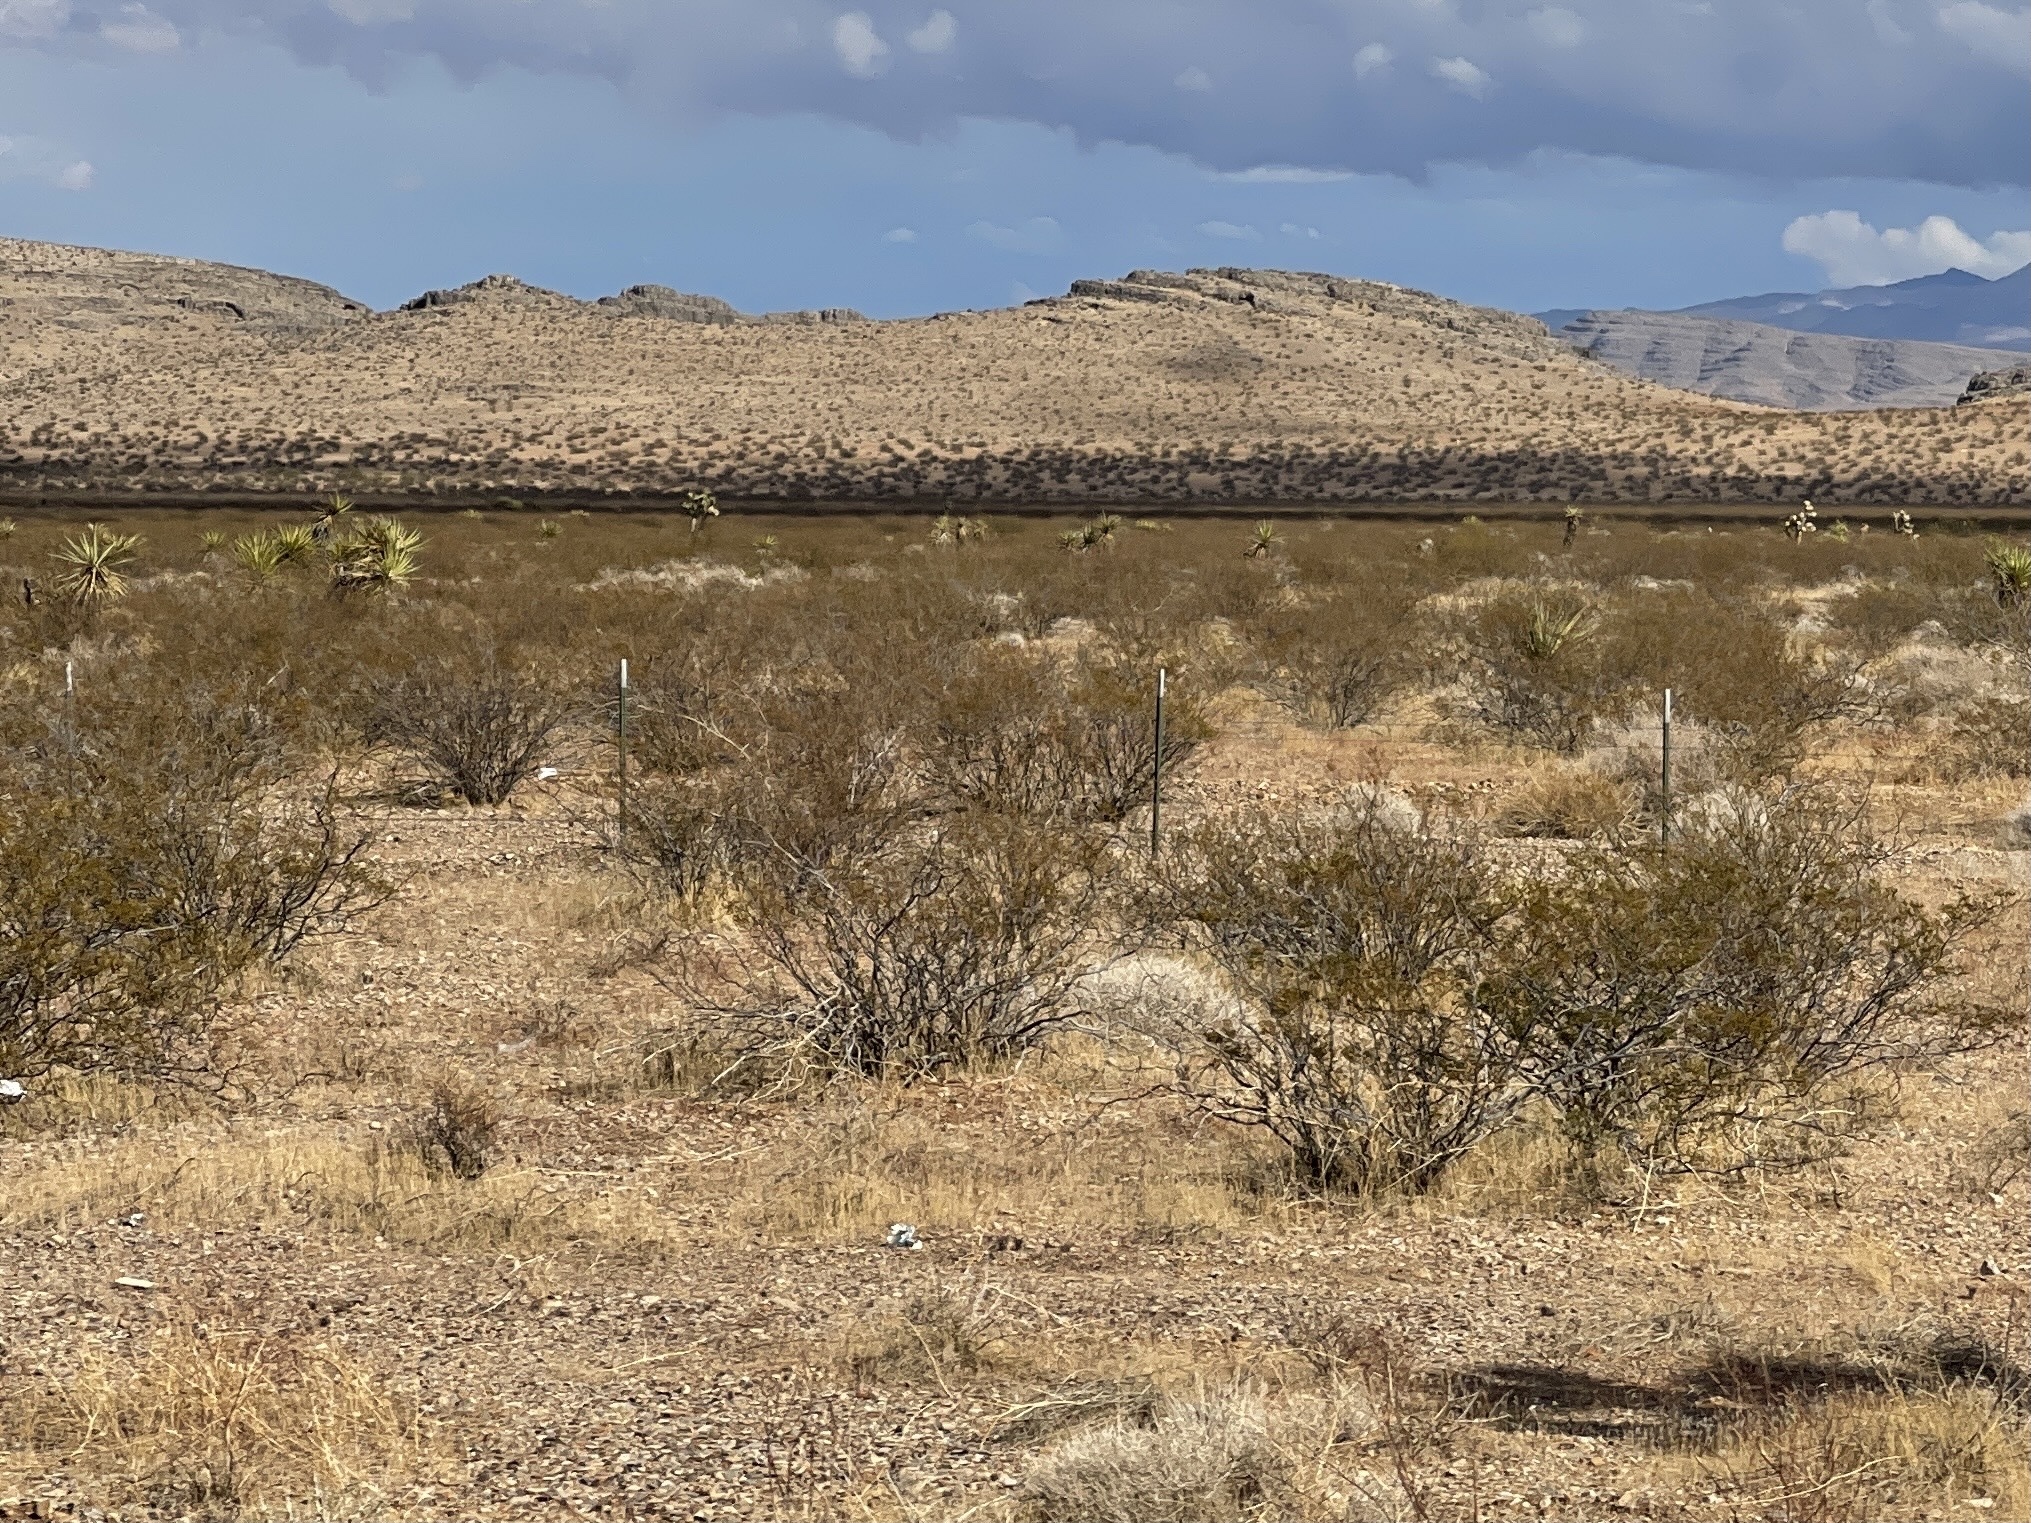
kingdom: Plantae
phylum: Tracheophyta
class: Magnoliopsida
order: Zygophyllales
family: Zygophyllaceae
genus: Larrea
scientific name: Larrea tridentata
